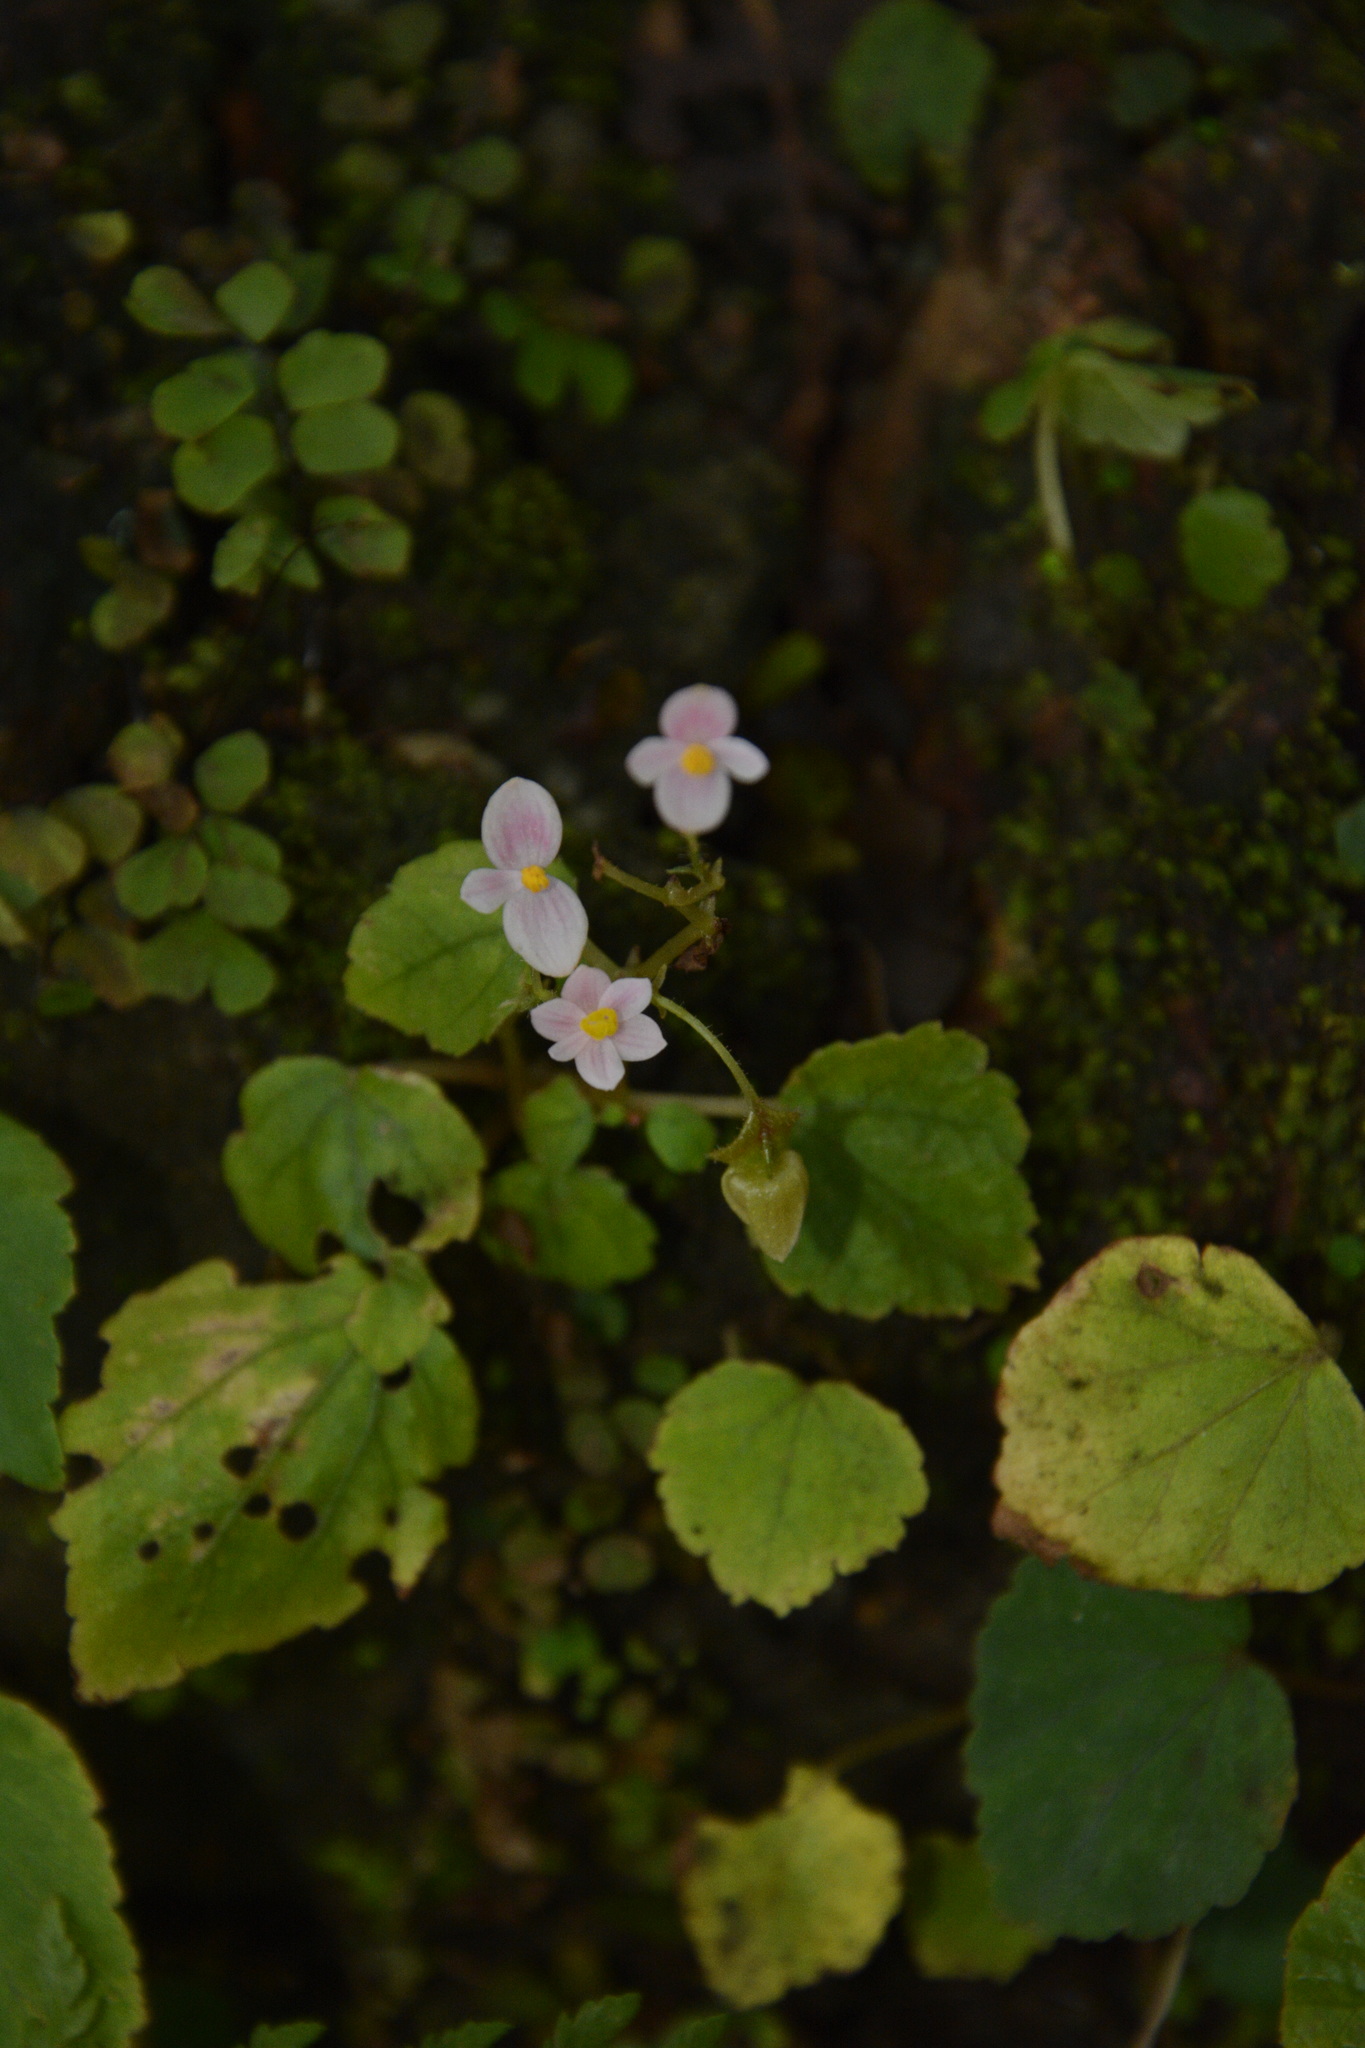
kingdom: Plantae
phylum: Tracheophyta
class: Magnoliopsida
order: Cucurbitales
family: Begoniaceae
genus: Begonia
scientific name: Begonia crenata
